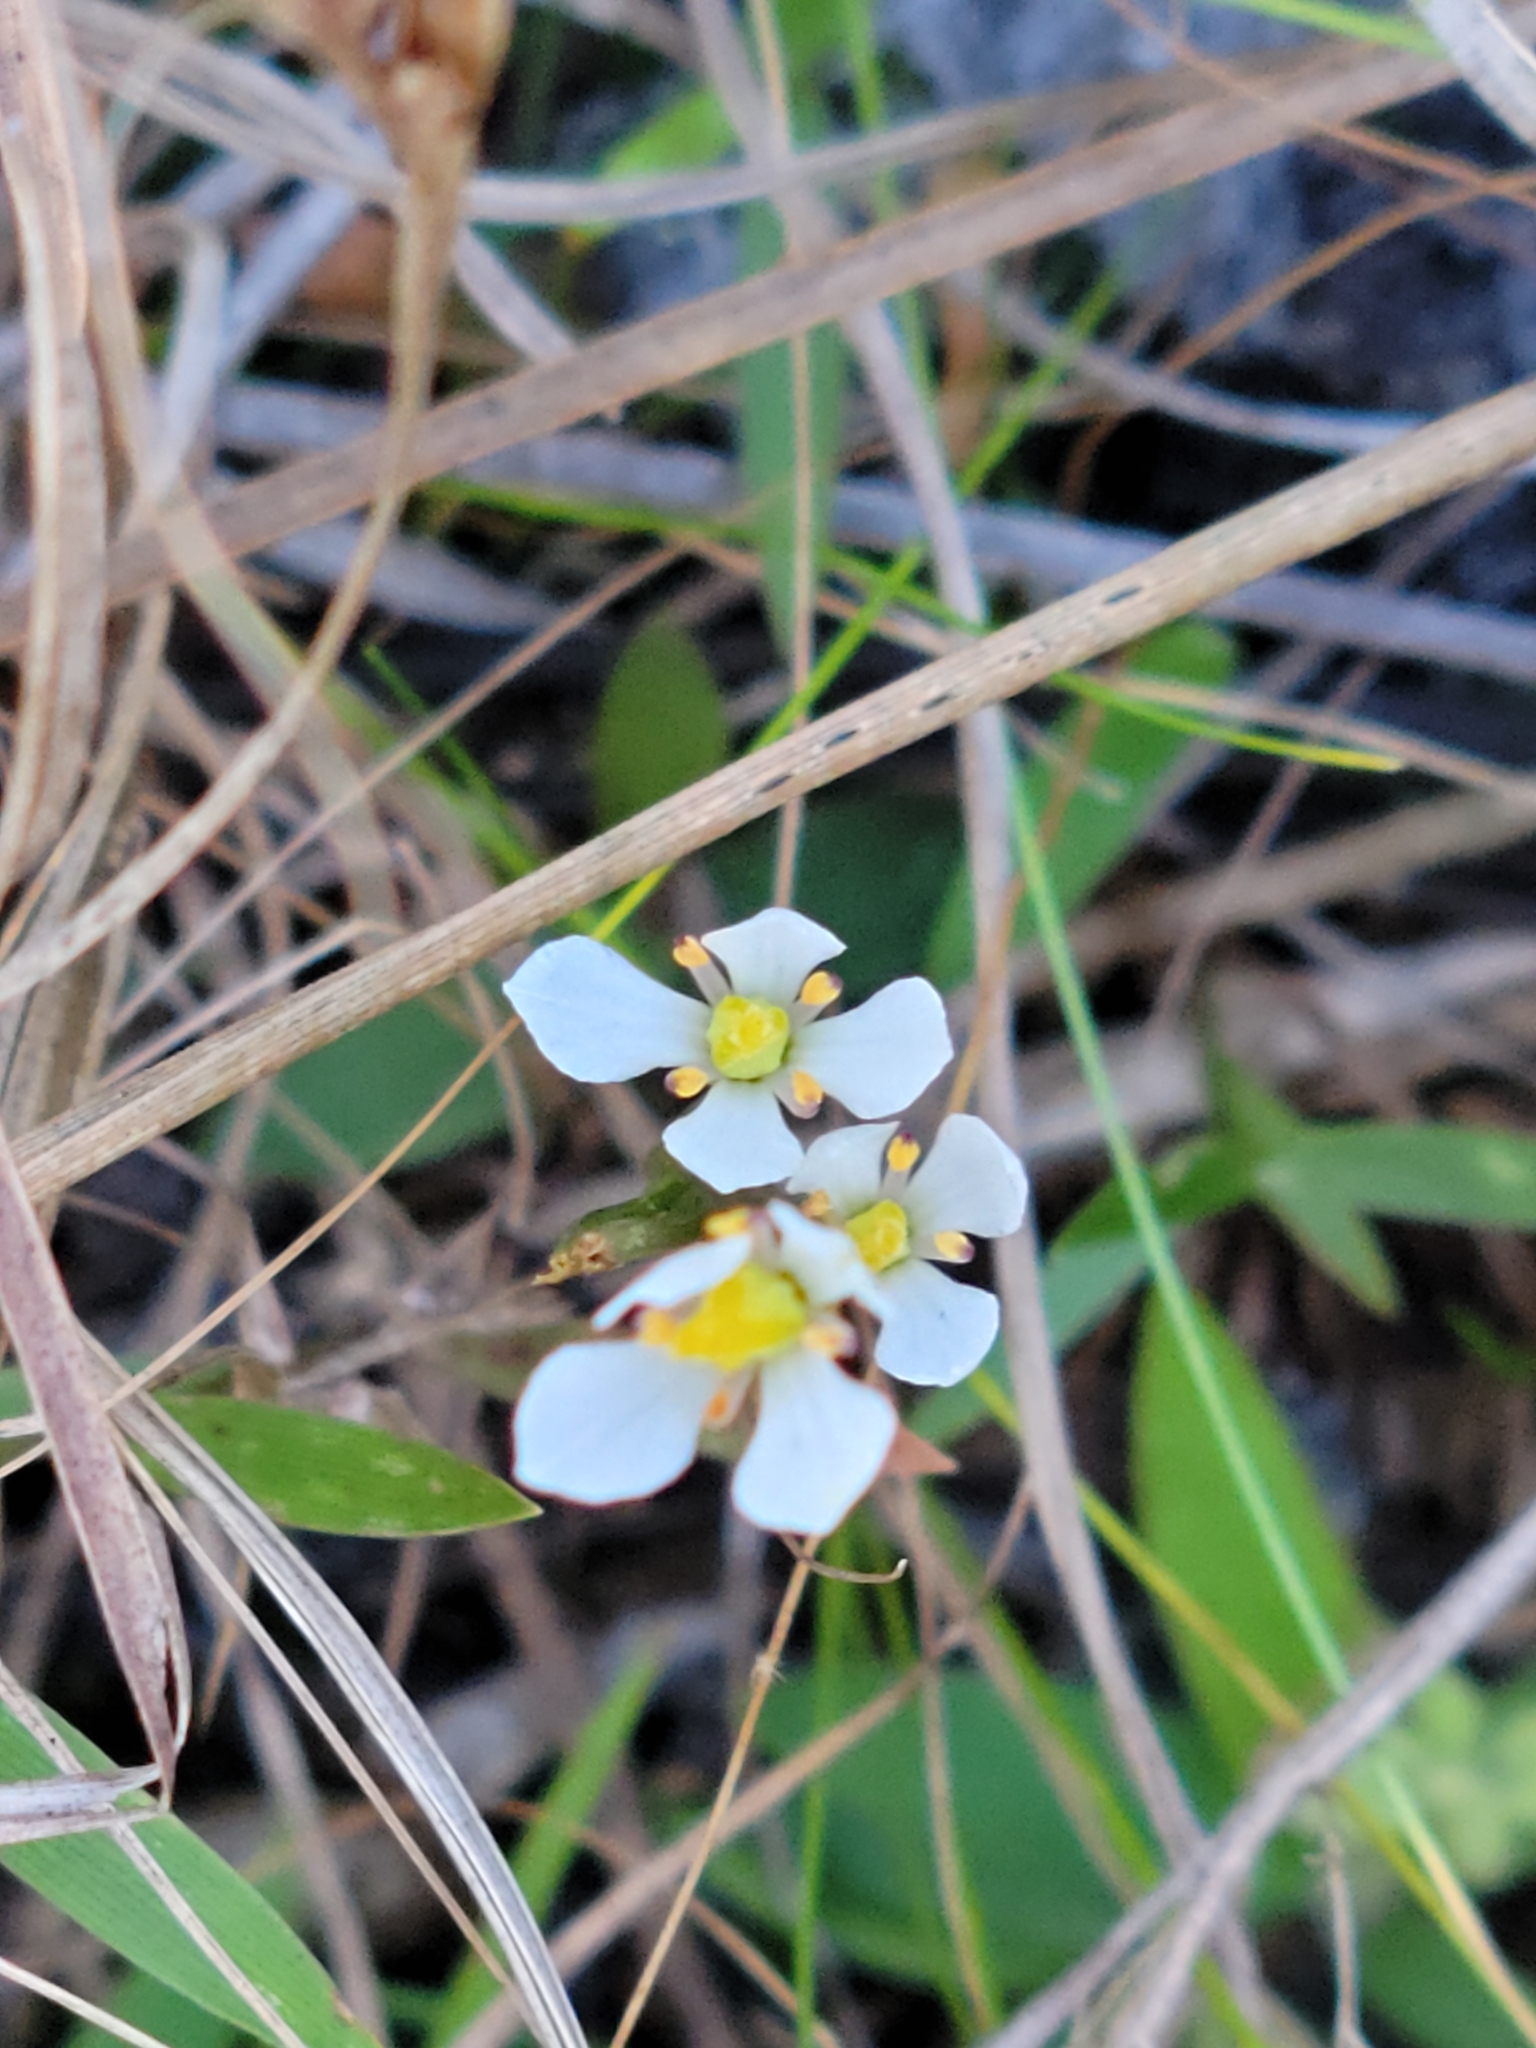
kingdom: Plantae
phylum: Tracheophyta
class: Magnoliopsida
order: Gentianales
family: Gentianaceae
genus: Bartonia
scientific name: Bartonia verna
